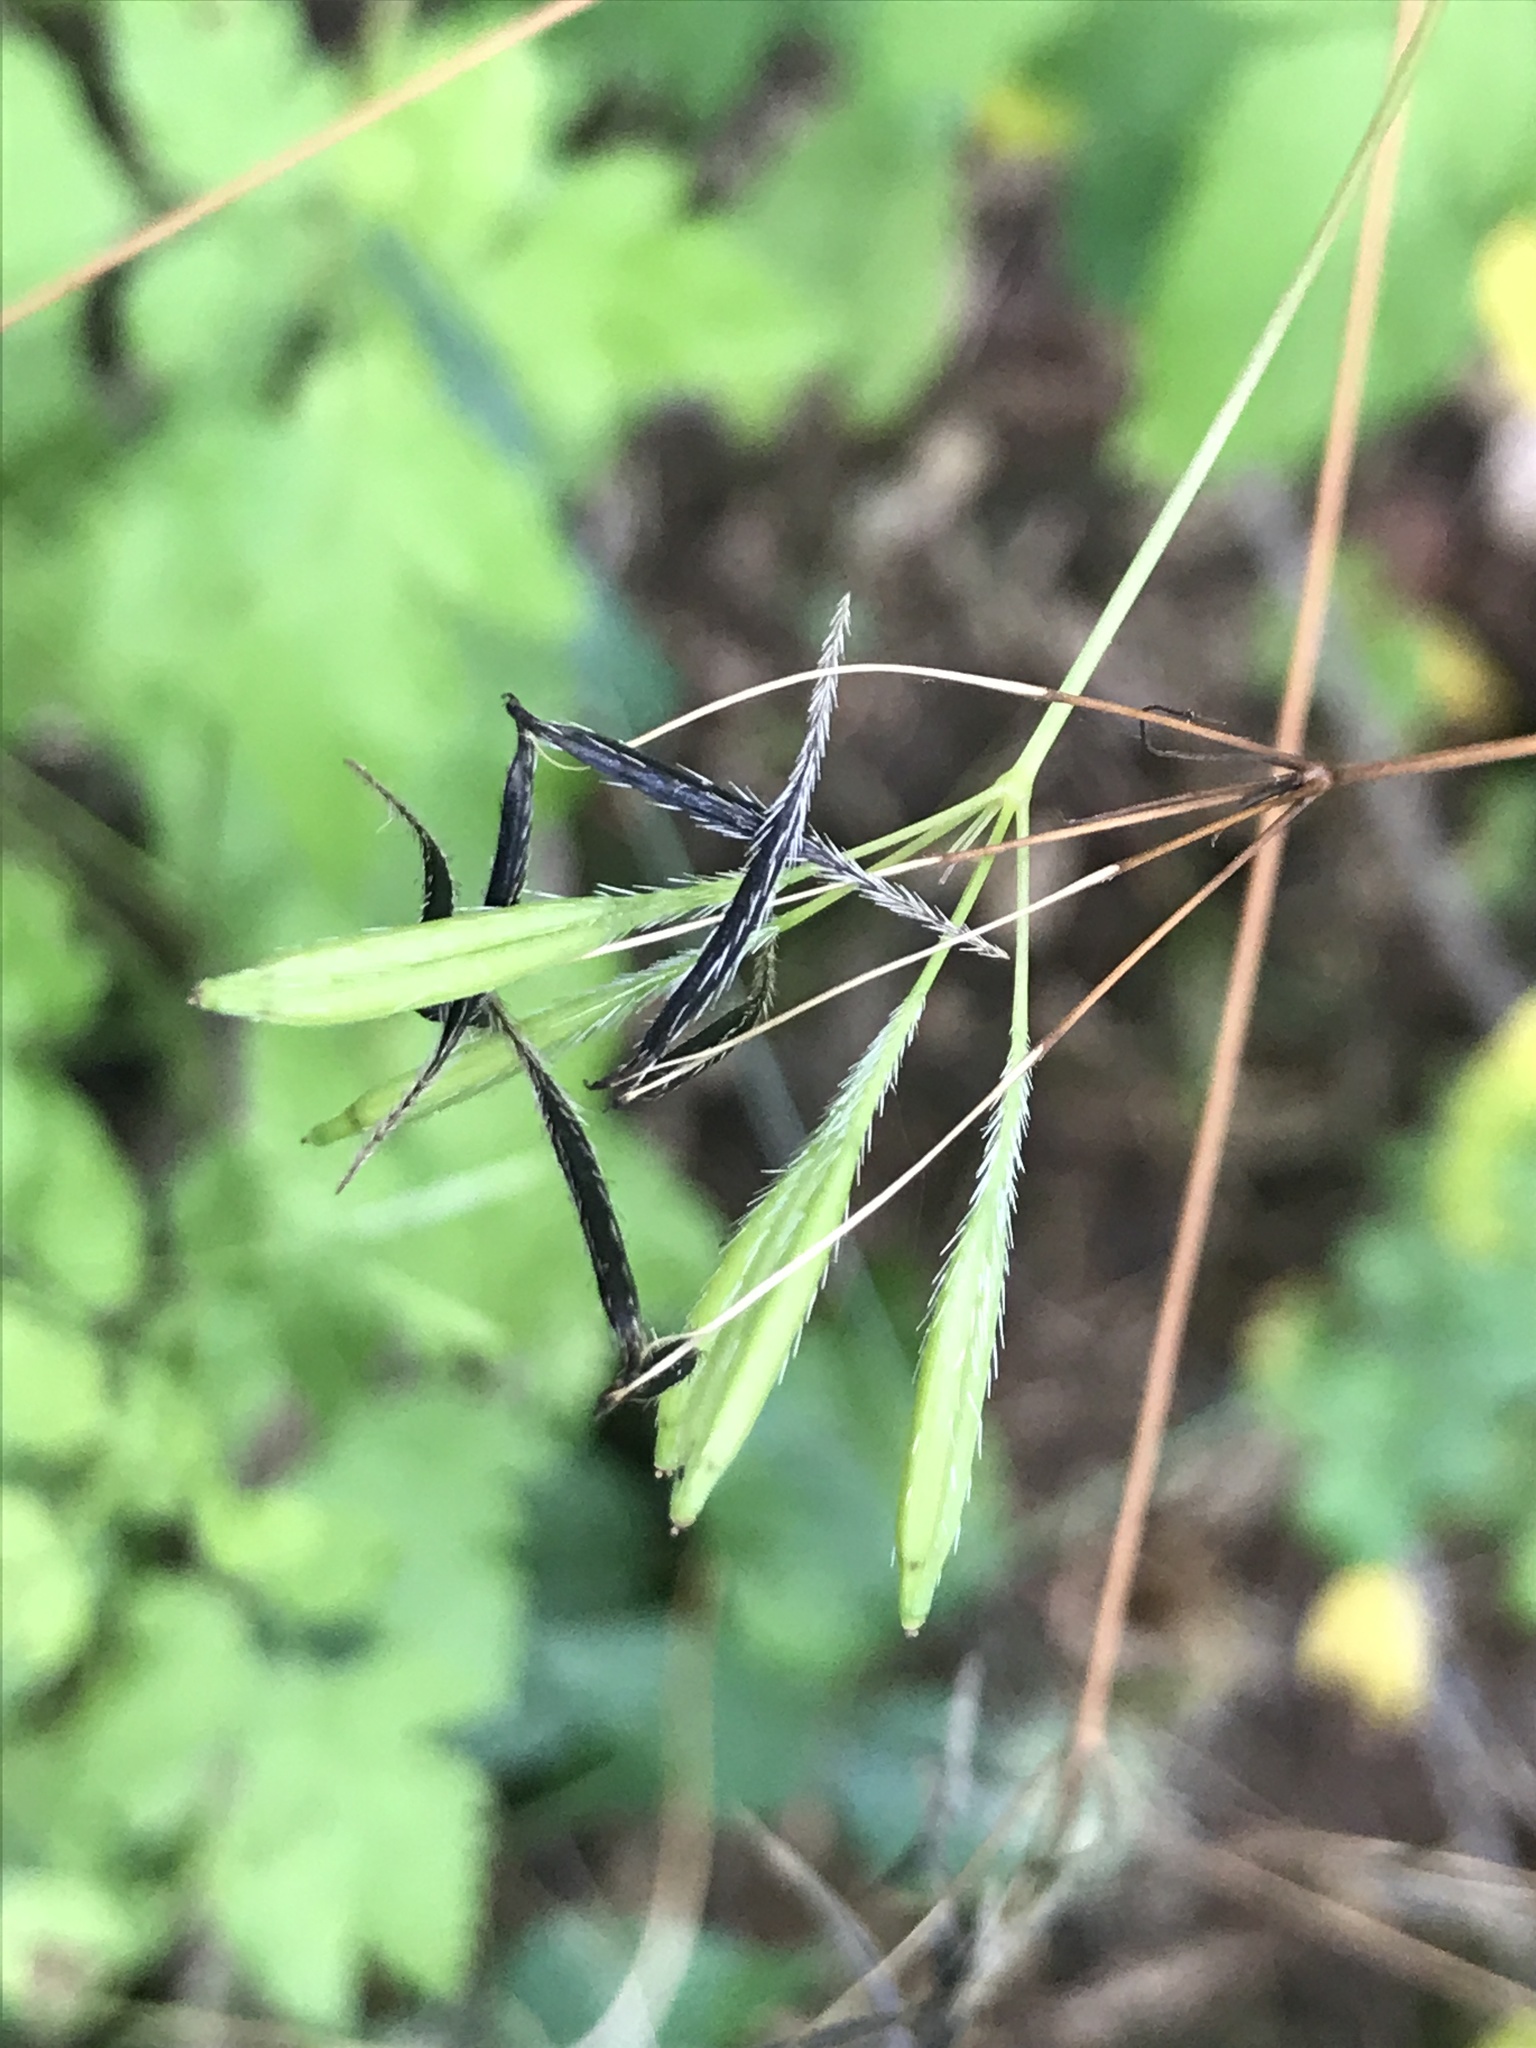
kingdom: Plantae
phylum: Tracheophyta
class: Magnoliopsida
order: Apiales
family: Apiaceae
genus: Osmorhiza
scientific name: Osmorhiza berteroi
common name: Mountain sweet cicely
